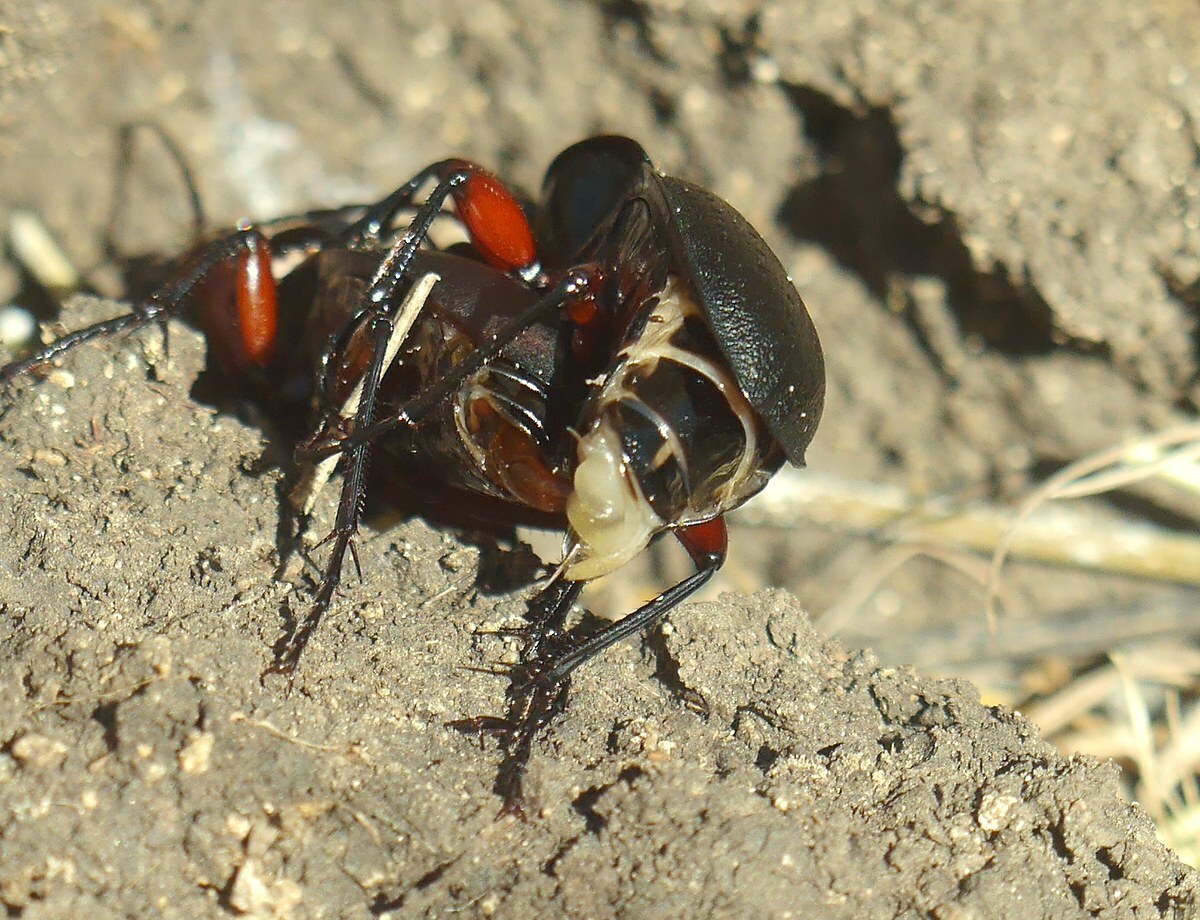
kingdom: Animalia
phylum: Arthropoda
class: Insecta
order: Coleoptera
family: Carabidae
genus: Carabus
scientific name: Carabus besseri
